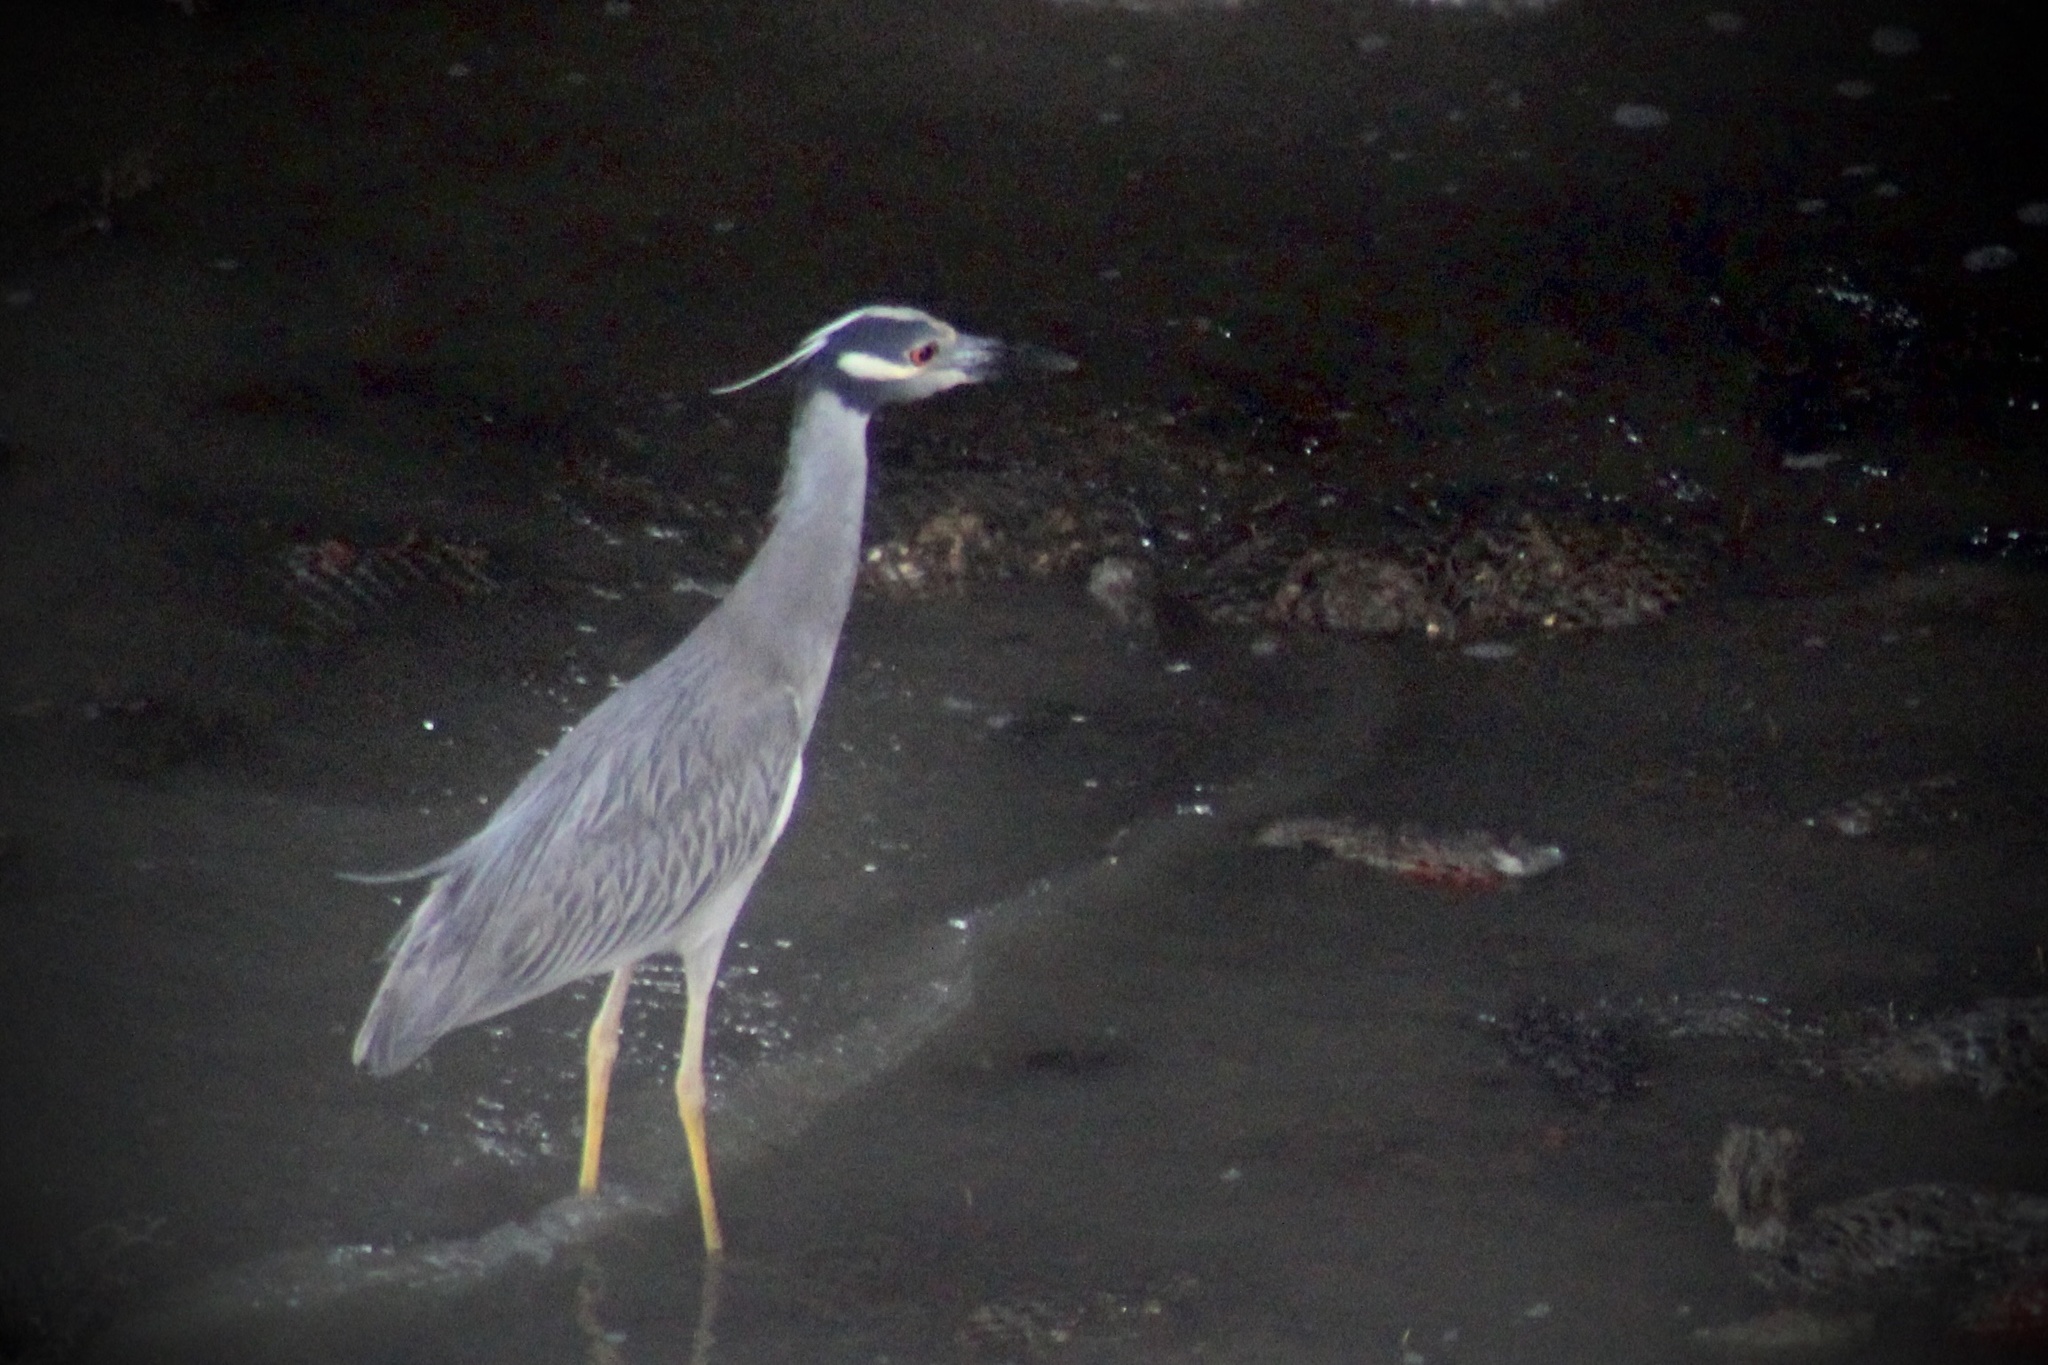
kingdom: Animalia
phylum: Chordata
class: Aves
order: Pelecaniformes
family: Ardeidae
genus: Nyctanassa
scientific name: Nyctanassa violacea
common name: Yellow-crowned night heron
